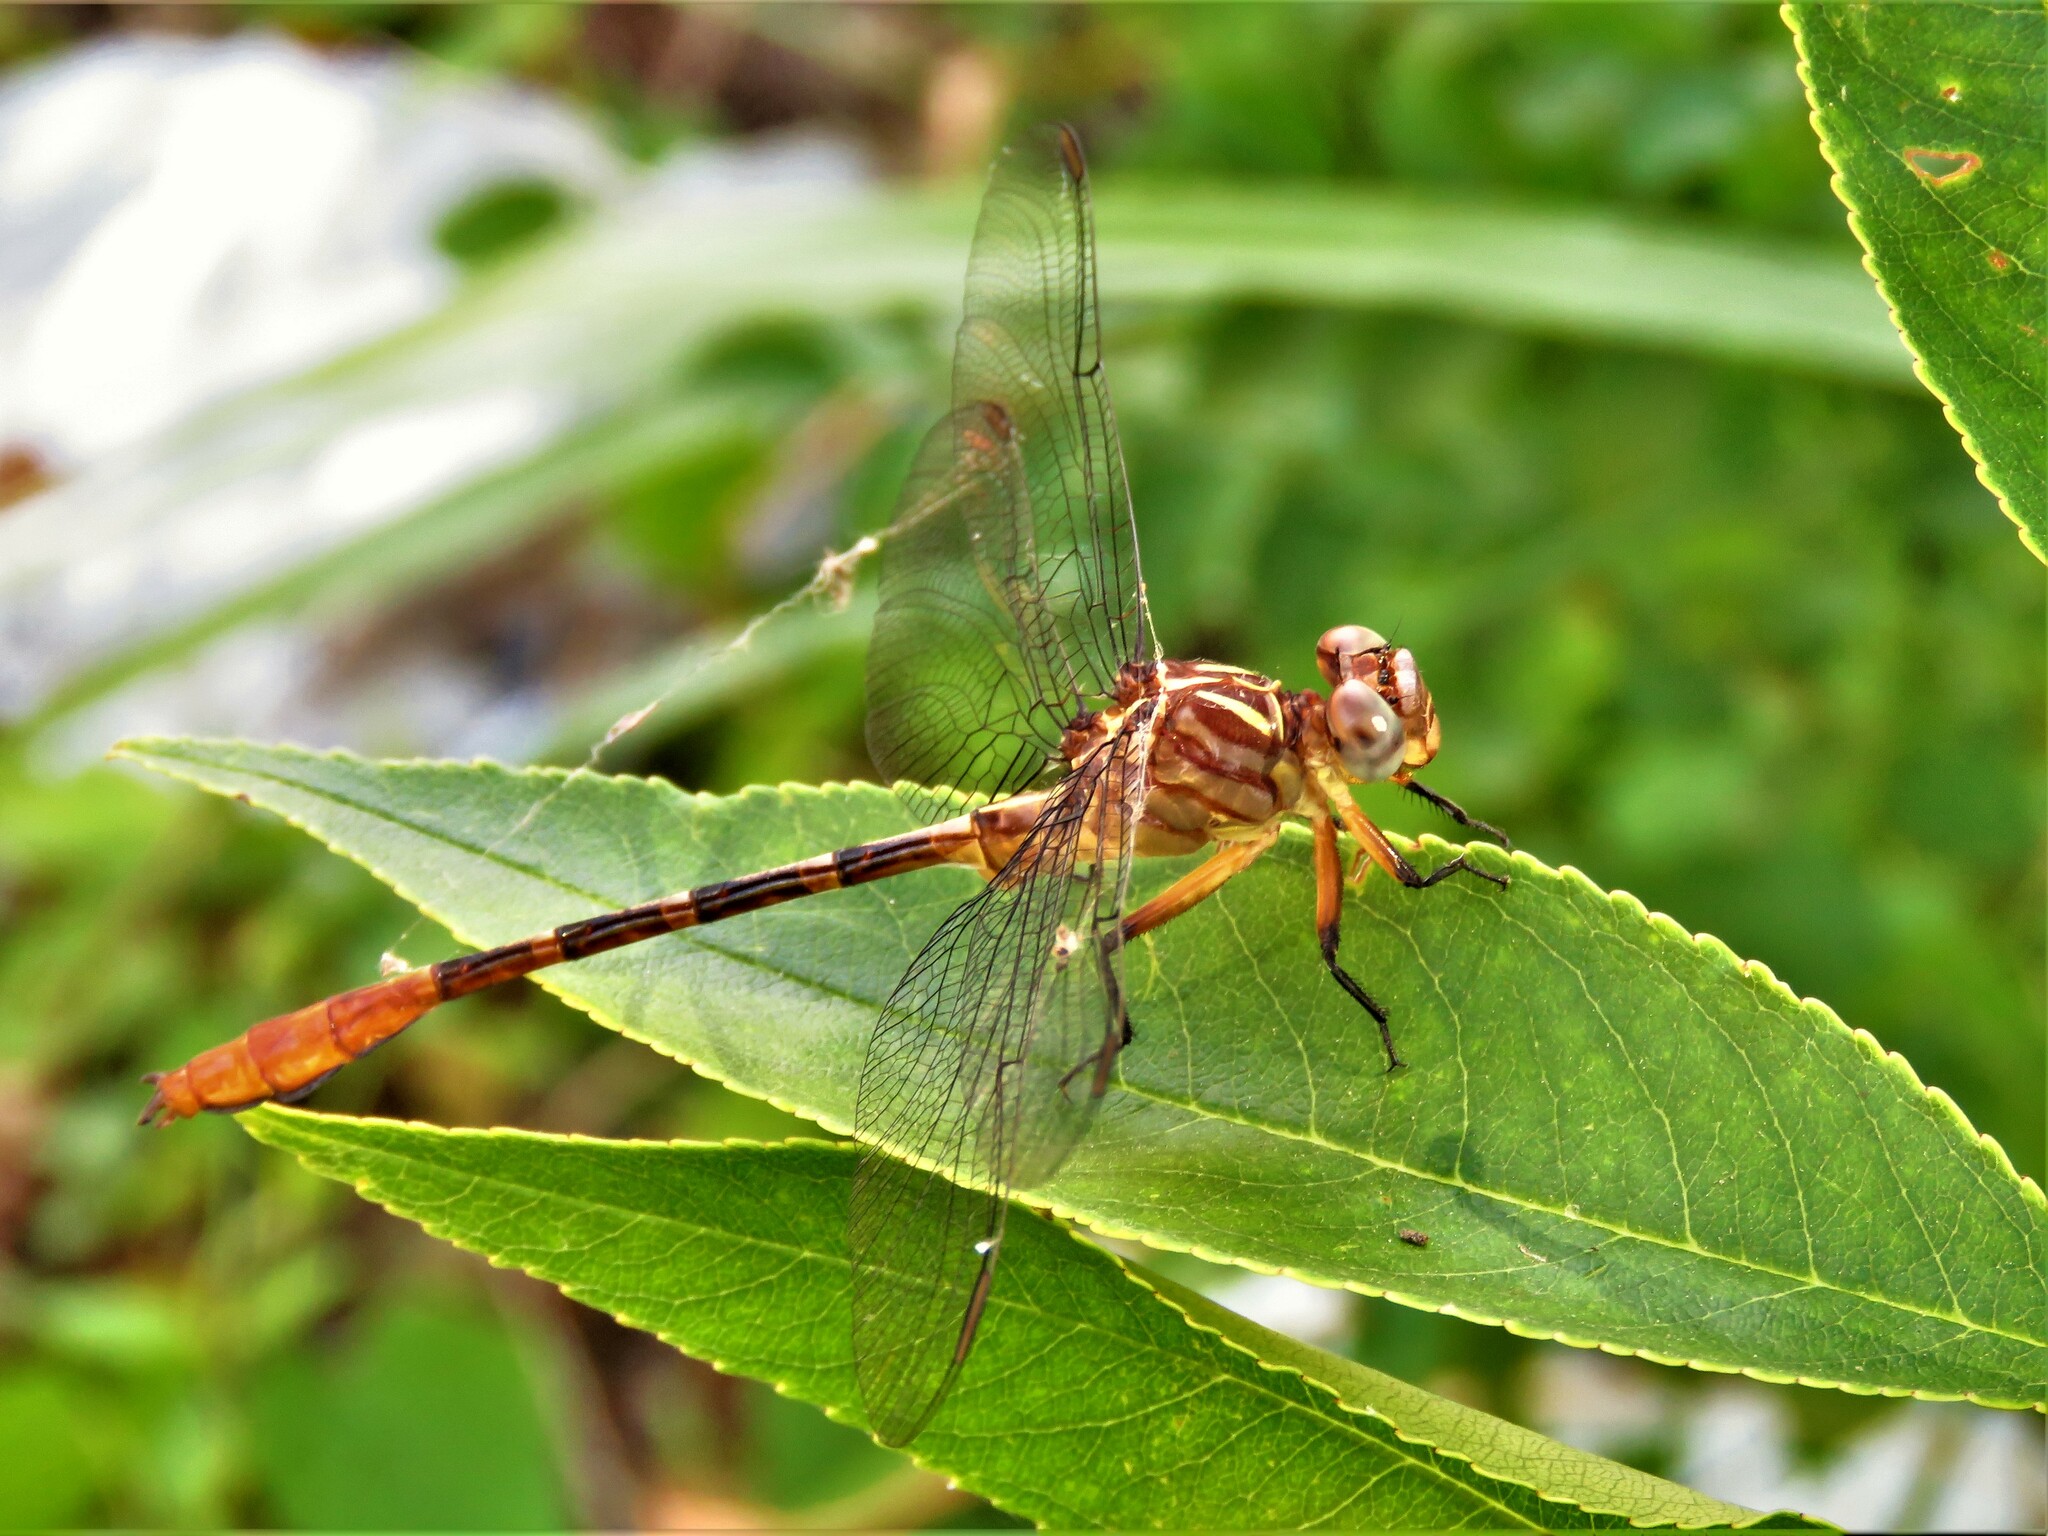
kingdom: Animalia
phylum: Arthropoda
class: Insecta
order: Odonata
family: Gomphidae
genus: Stylurus
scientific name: Stylurus plagiatus
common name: Russet-tipped clubtail
